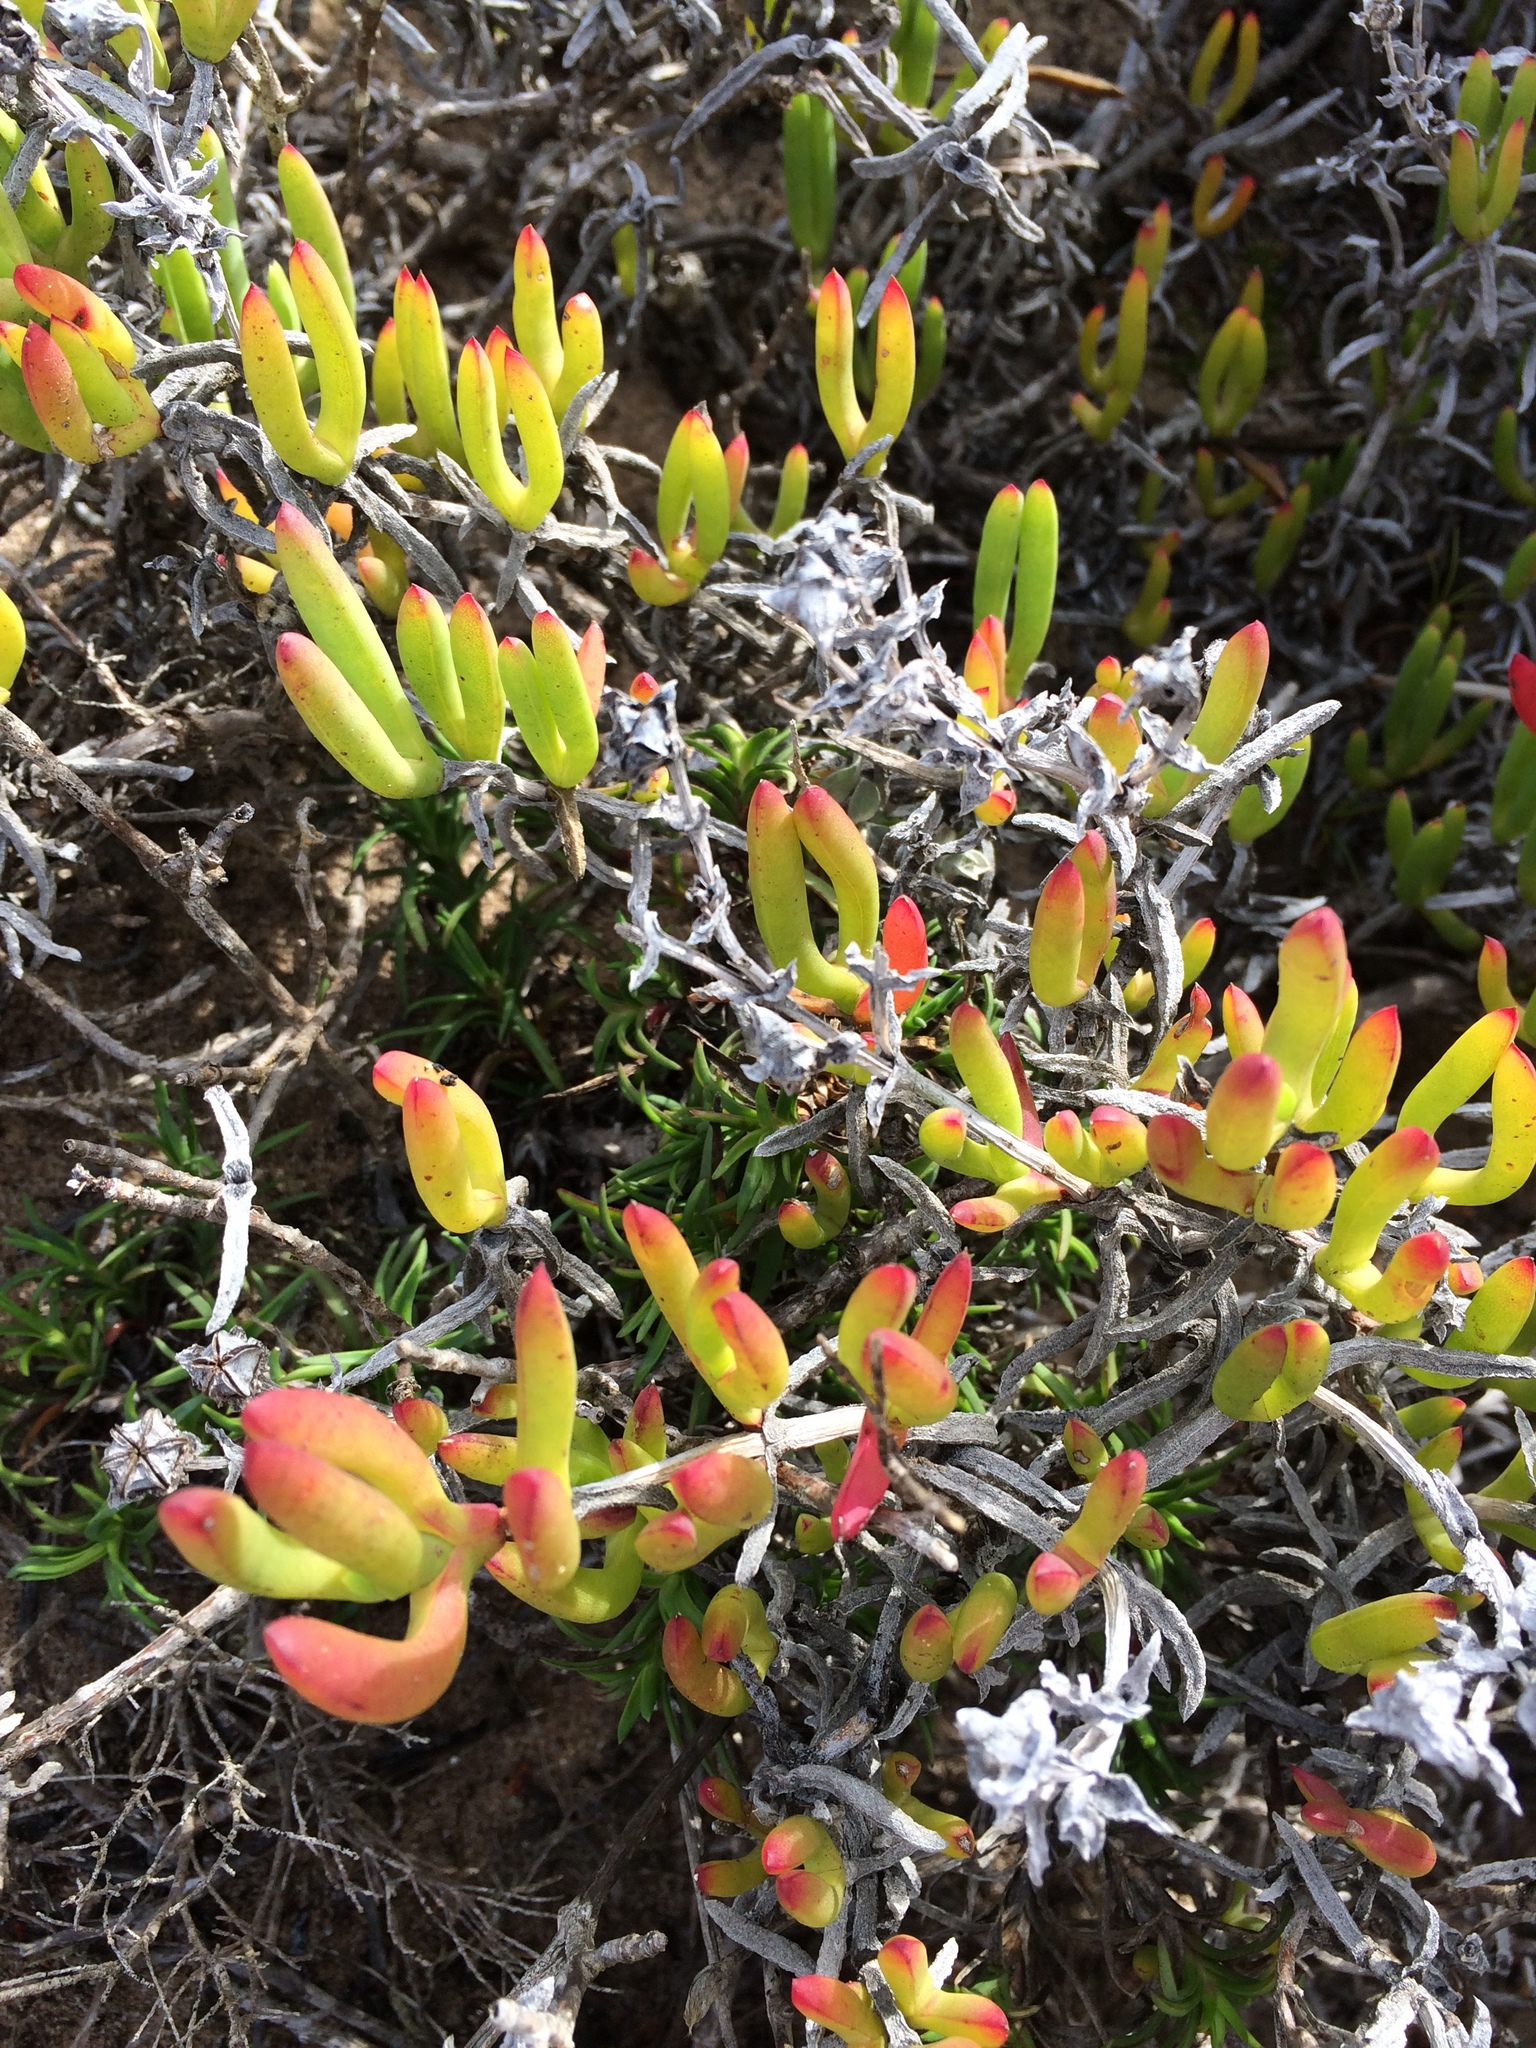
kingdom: Plantae
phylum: Tracheophyta
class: Magnoliopsida
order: Caryophyllales
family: Aizoaceae
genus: Ruschia
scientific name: Ruschia macowanii
